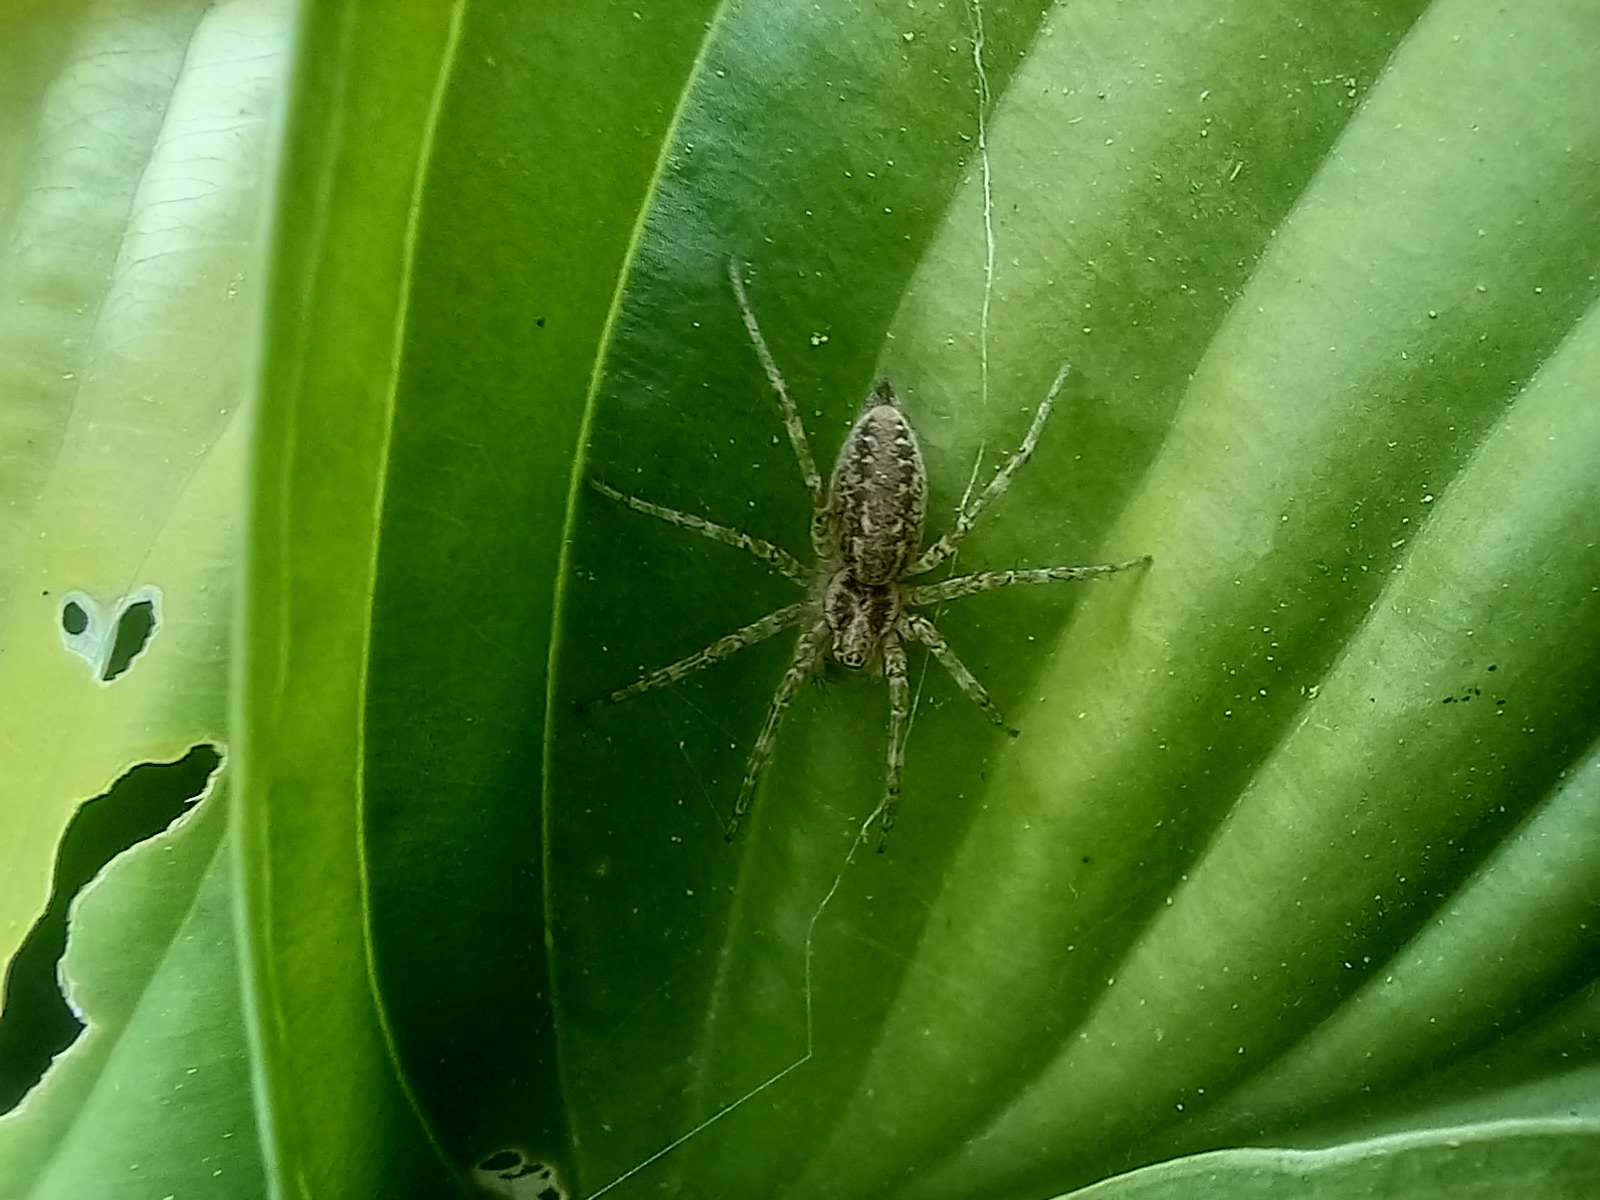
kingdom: Animalia
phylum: Arthropoda
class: Arachnida
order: Araneae
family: Agelenidae
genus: Allagelena
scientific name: Allagelena gracilens
